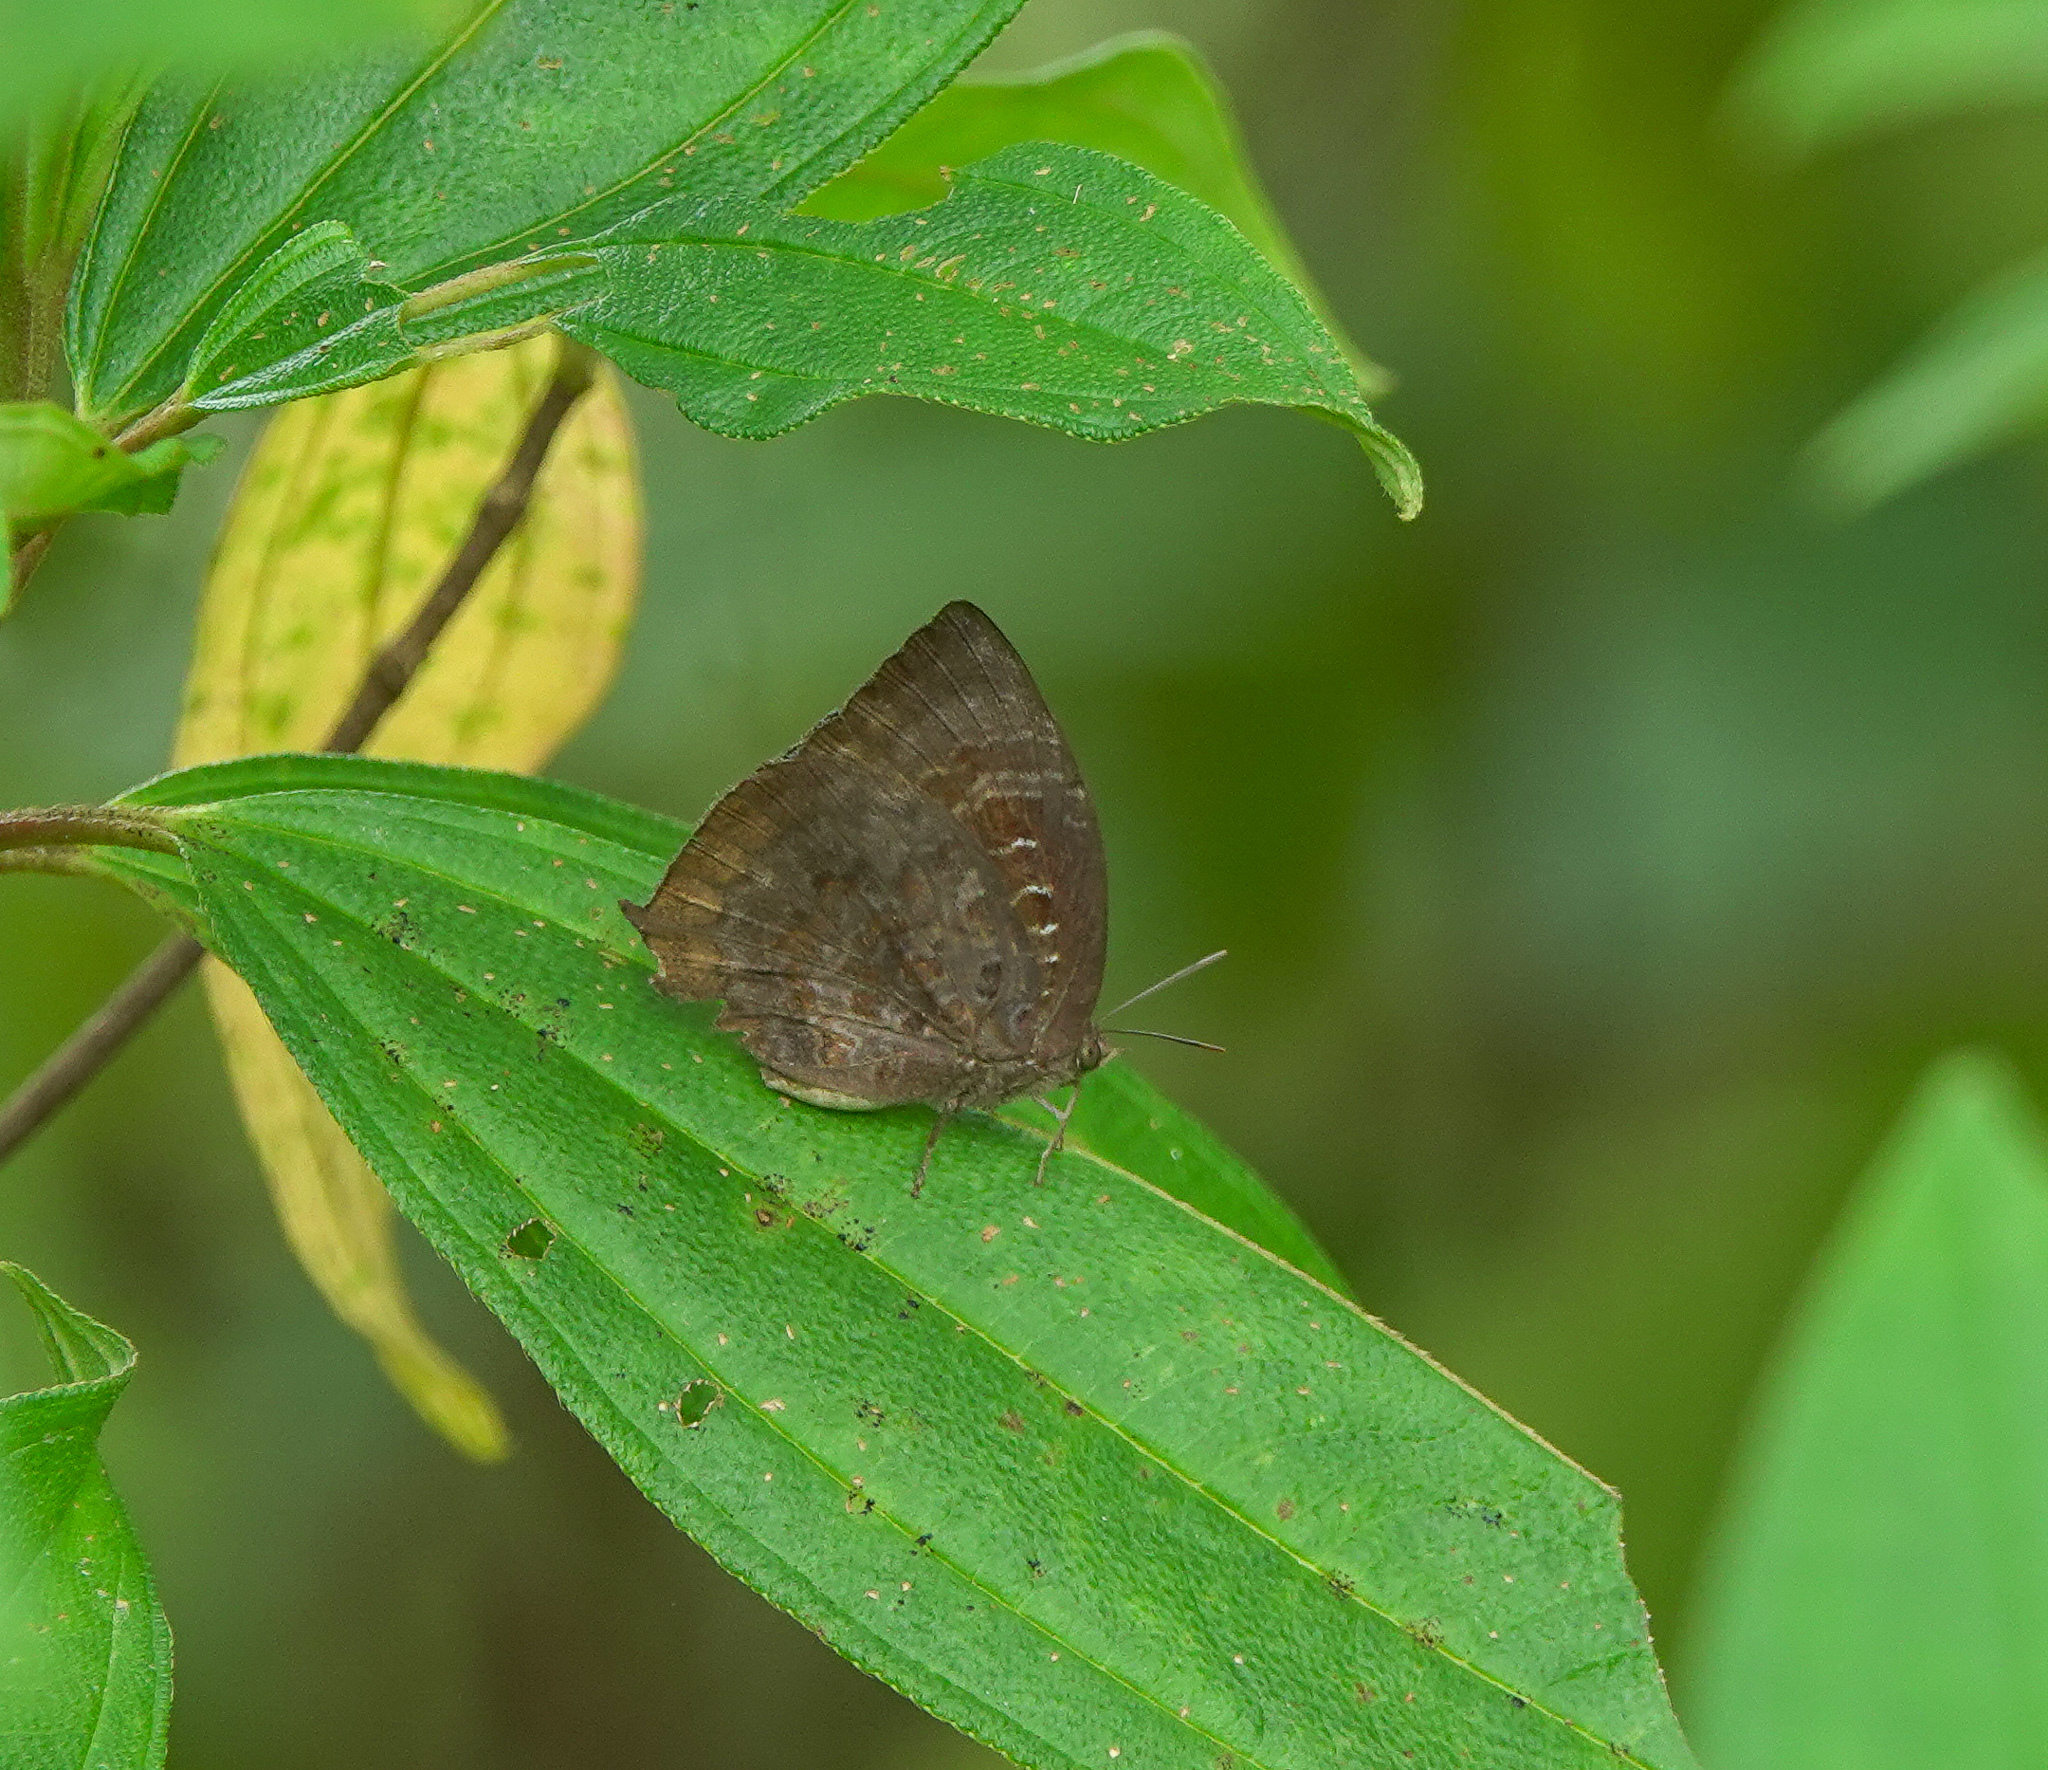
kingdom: Animalia
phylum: Arthropoda
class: Insecta
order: Lepidoptera
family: Lycaenidae
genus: Arhopala
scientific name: Arhopala centaurus
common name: Dull oak-blue
